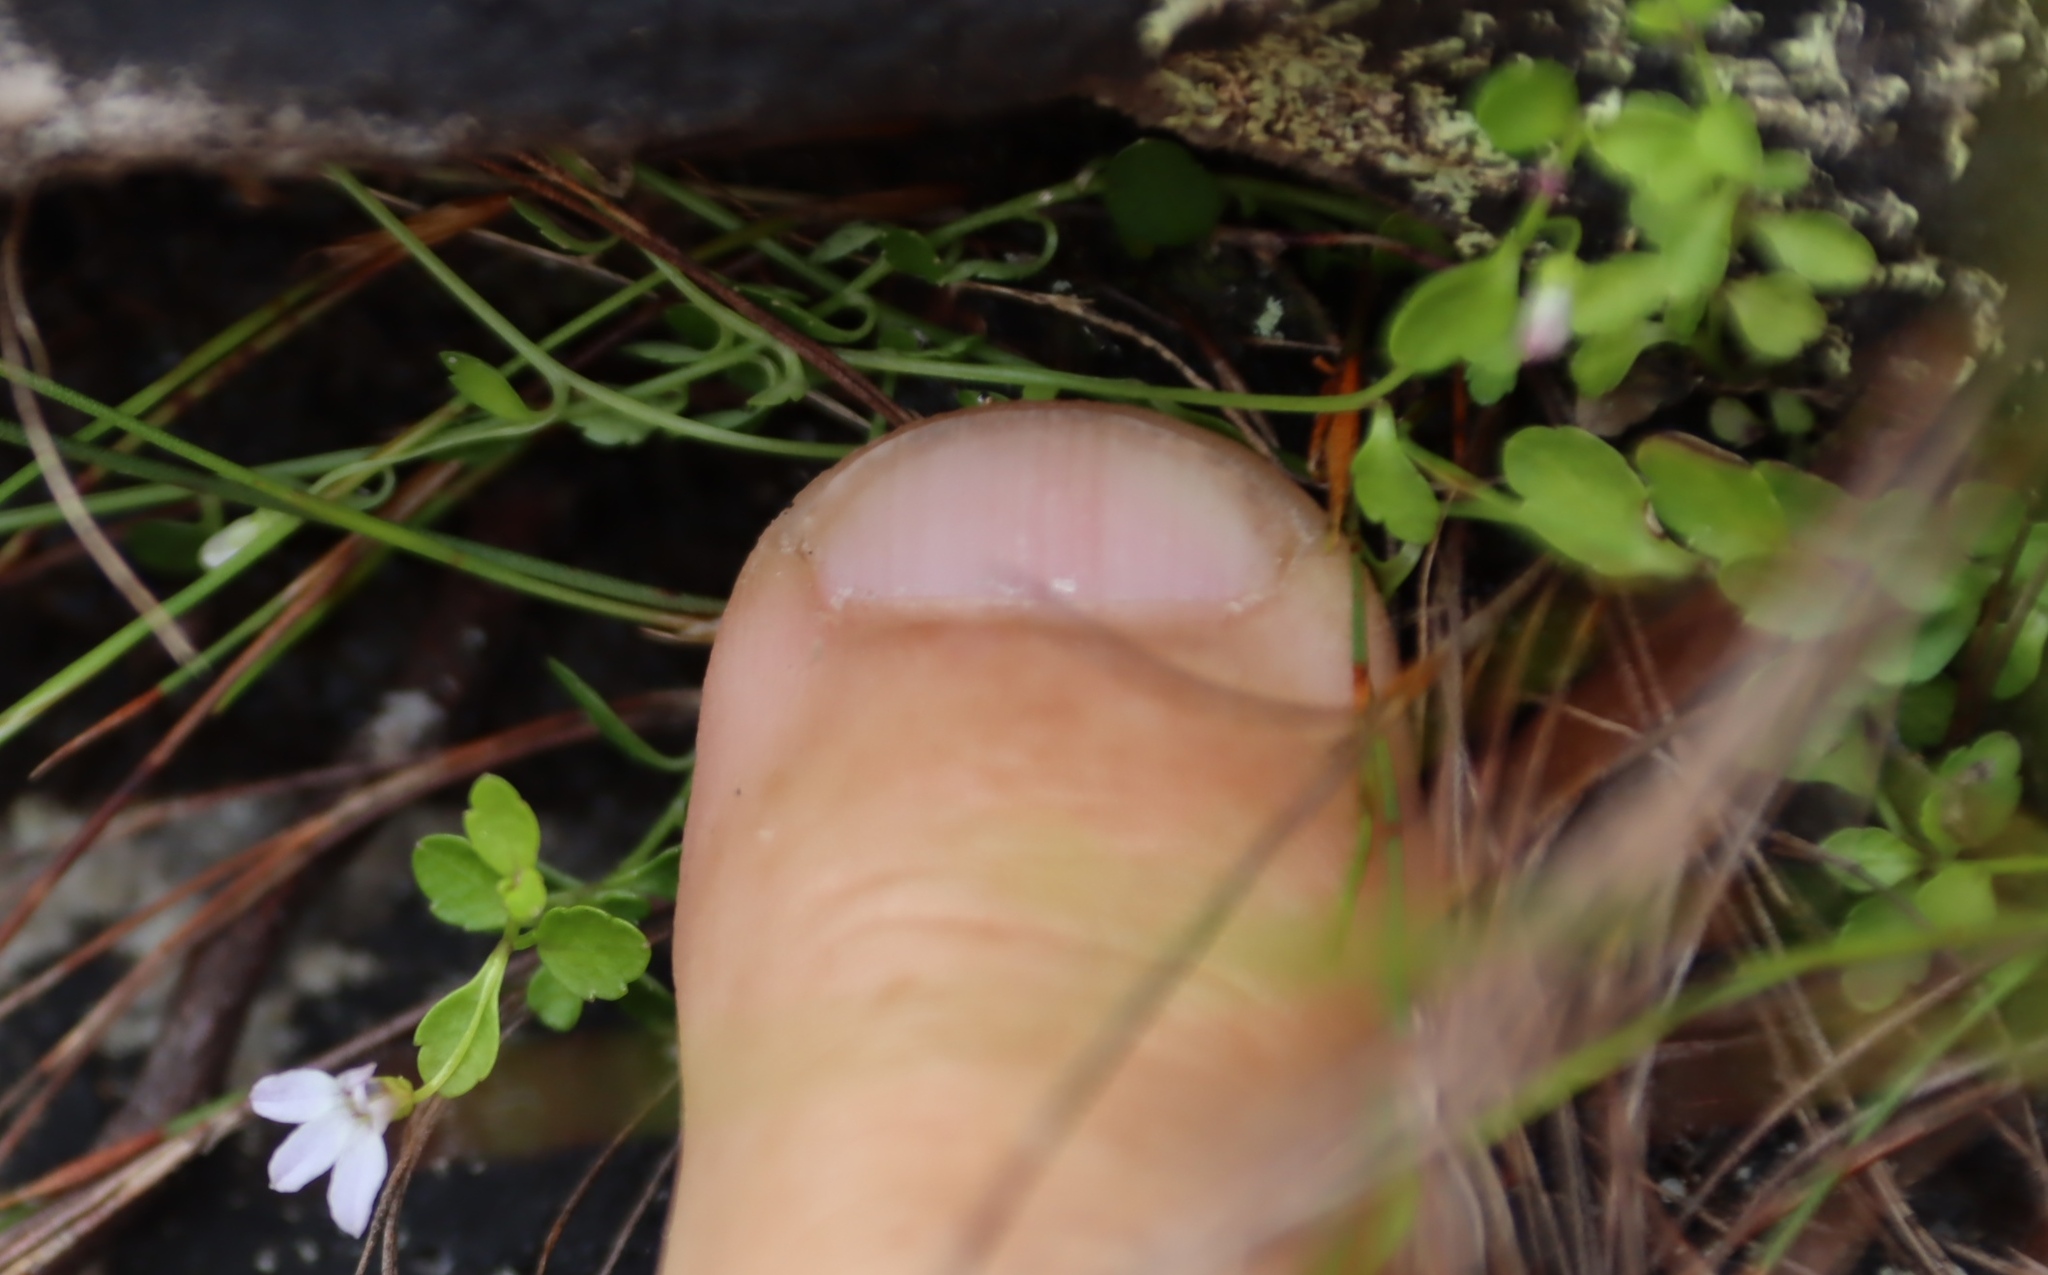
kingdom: Plantae
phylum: Tracheophyta
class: Magnoliopsida
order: Asterales
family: Campanulaceae
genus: Unigenes
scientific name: Unigenes humifusa
